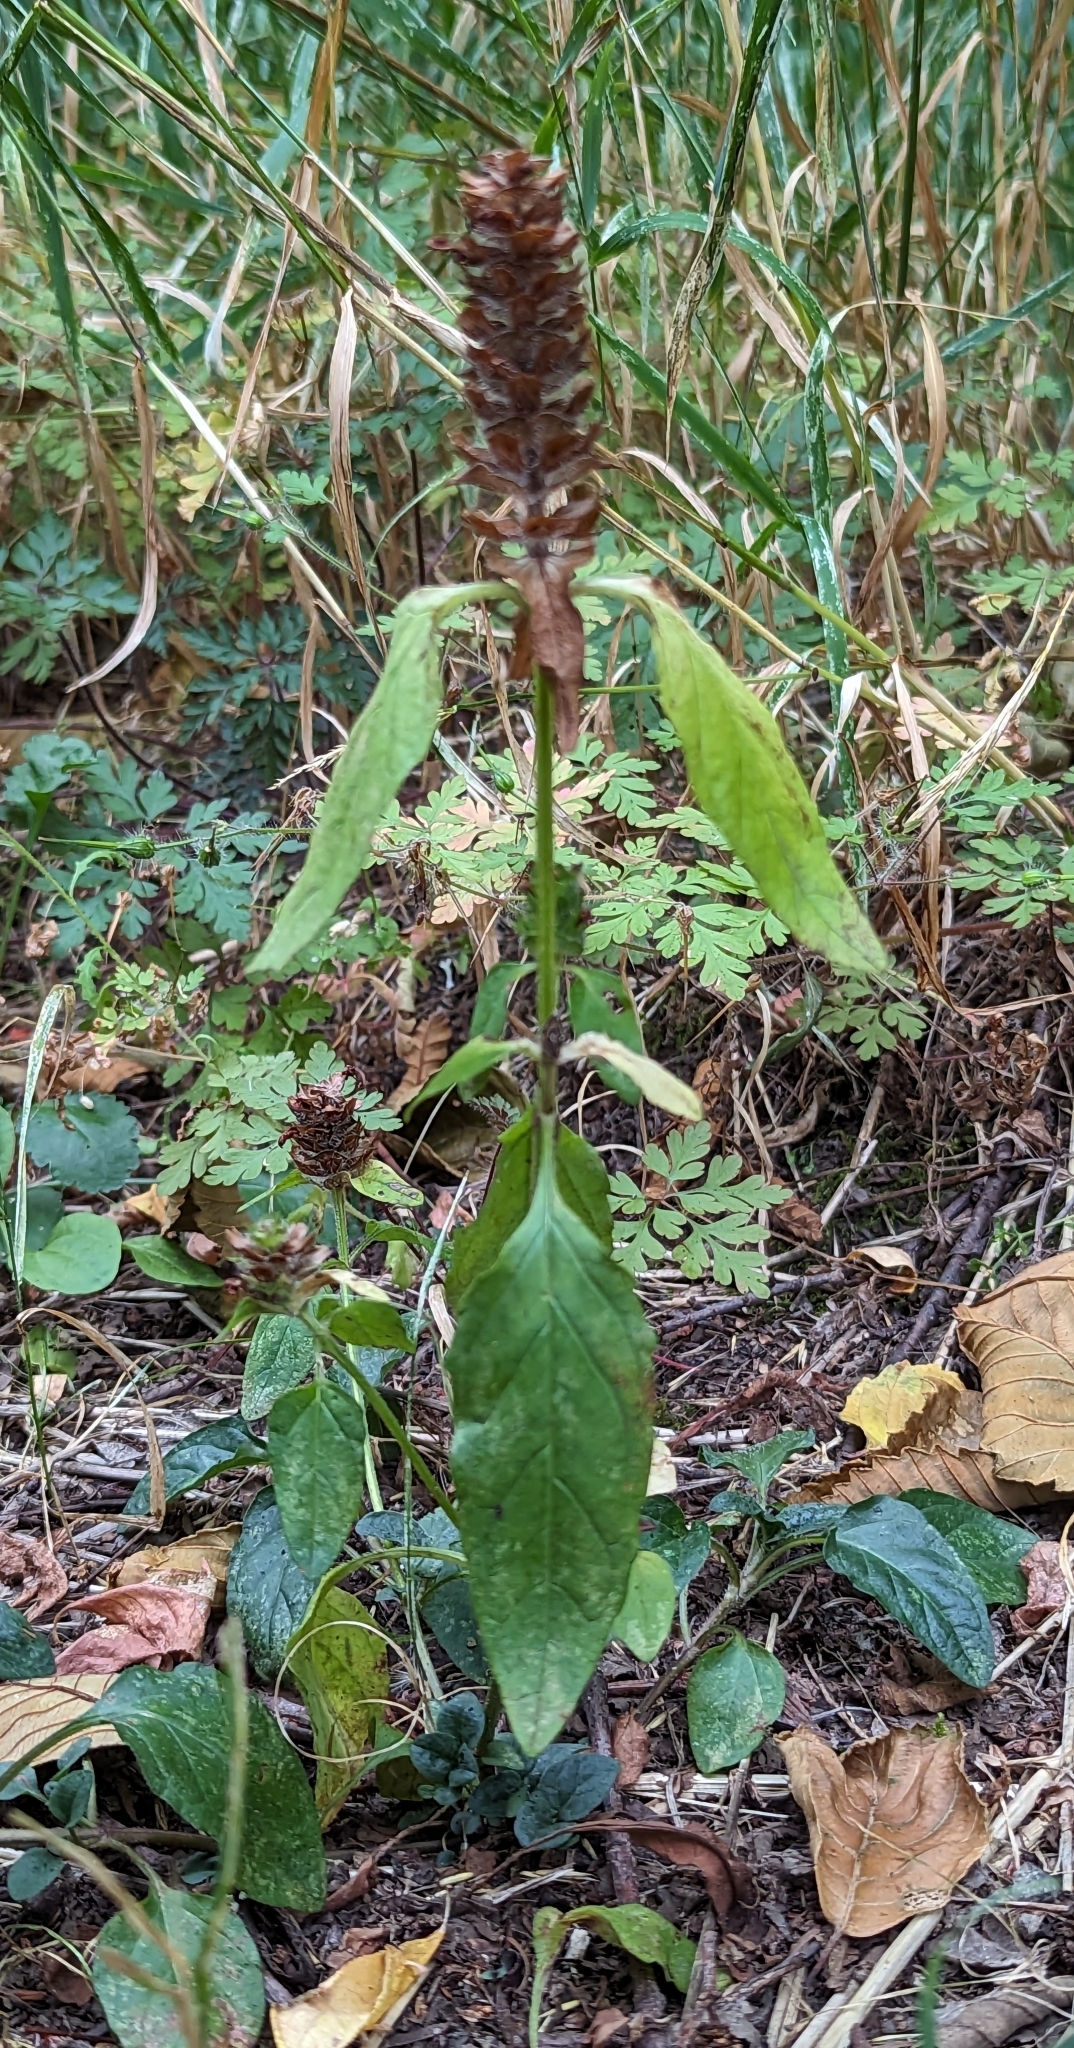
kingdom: Plantae
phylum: Tracheophyta
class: Magnoliopsida
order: Lamiales
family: Lamiaceae
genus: Prunella
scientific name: Prunella vulgaris
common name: Heal-all
